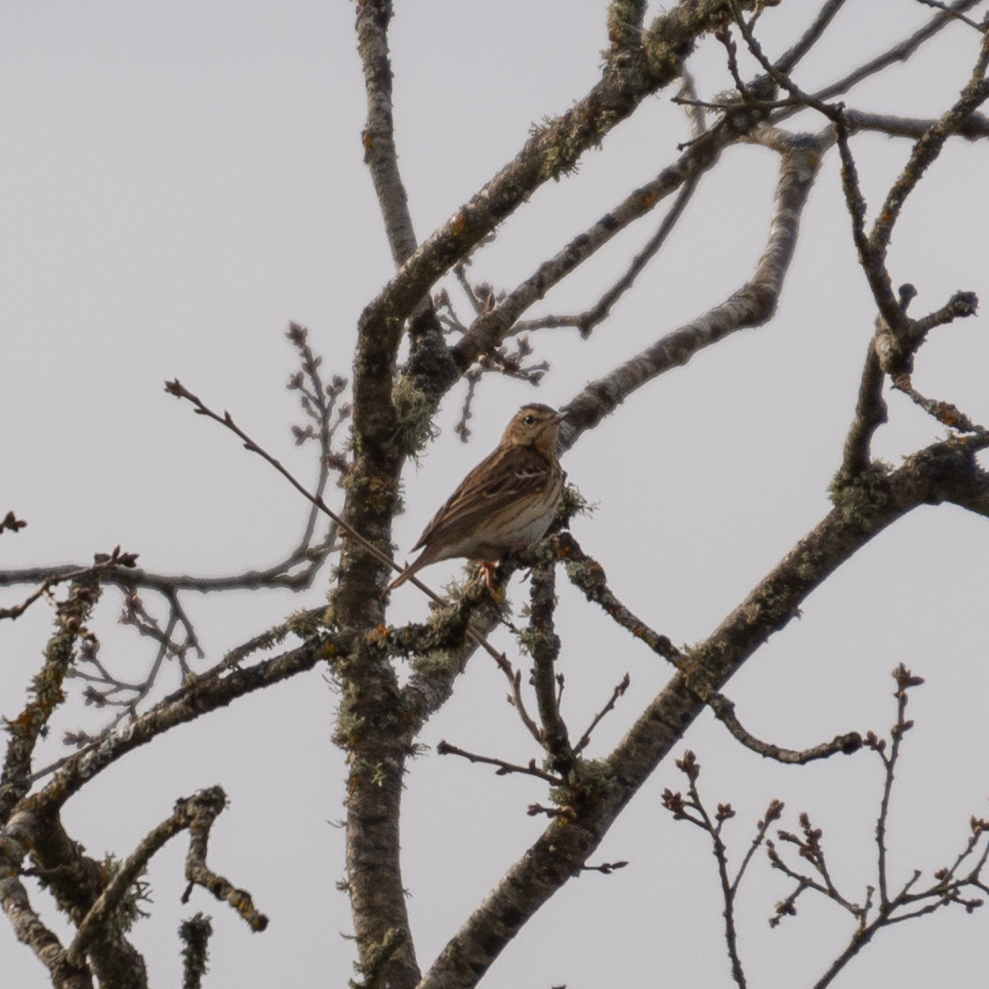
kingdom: Animalia
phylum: Chordata
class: Aves
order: Passeriformes
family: Motacillidae
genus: Anthus
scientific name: Anthus trivialis
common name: Tree pipit
